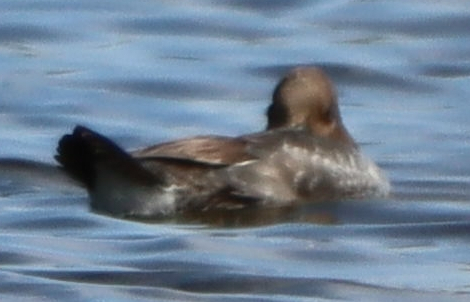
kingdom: Animalia
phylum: Chordata
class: Aves
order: Anseriformes
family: Anatidae
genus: Bucephala
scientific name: Bucephala clangula
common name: Common goldeneye
